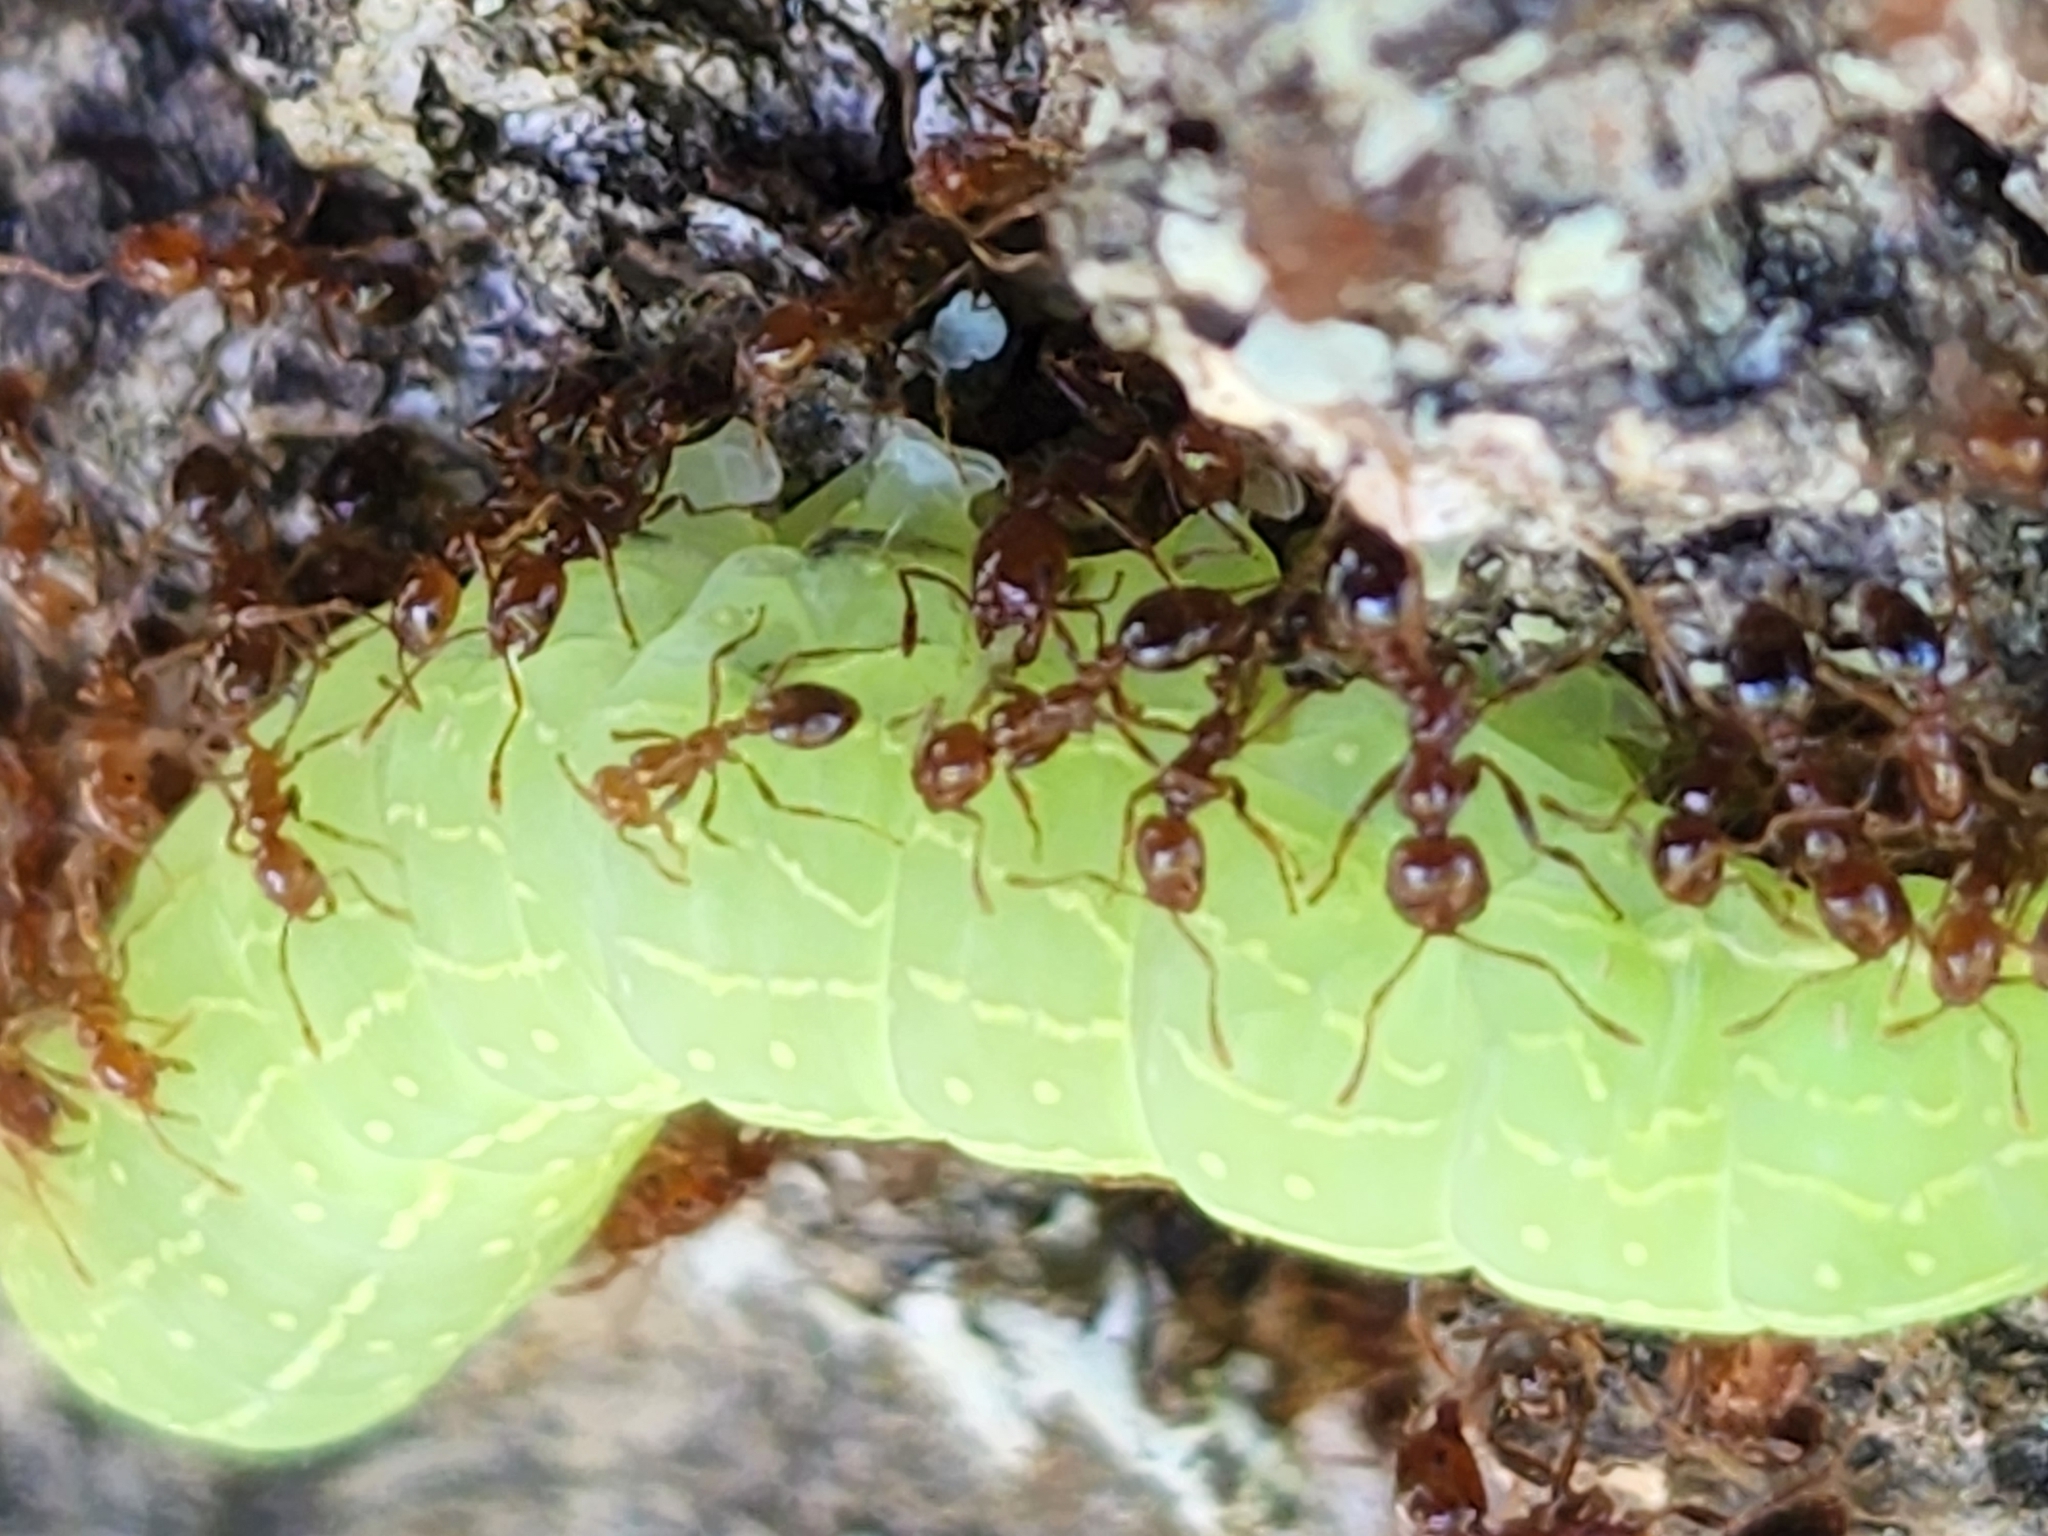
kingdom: Animalia
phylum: Arthropoda
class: Insecta
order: Hymenoptera
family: Formicidae
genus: Solenopsis
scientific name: Solenopsis invicta
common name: Red imported fire ant
